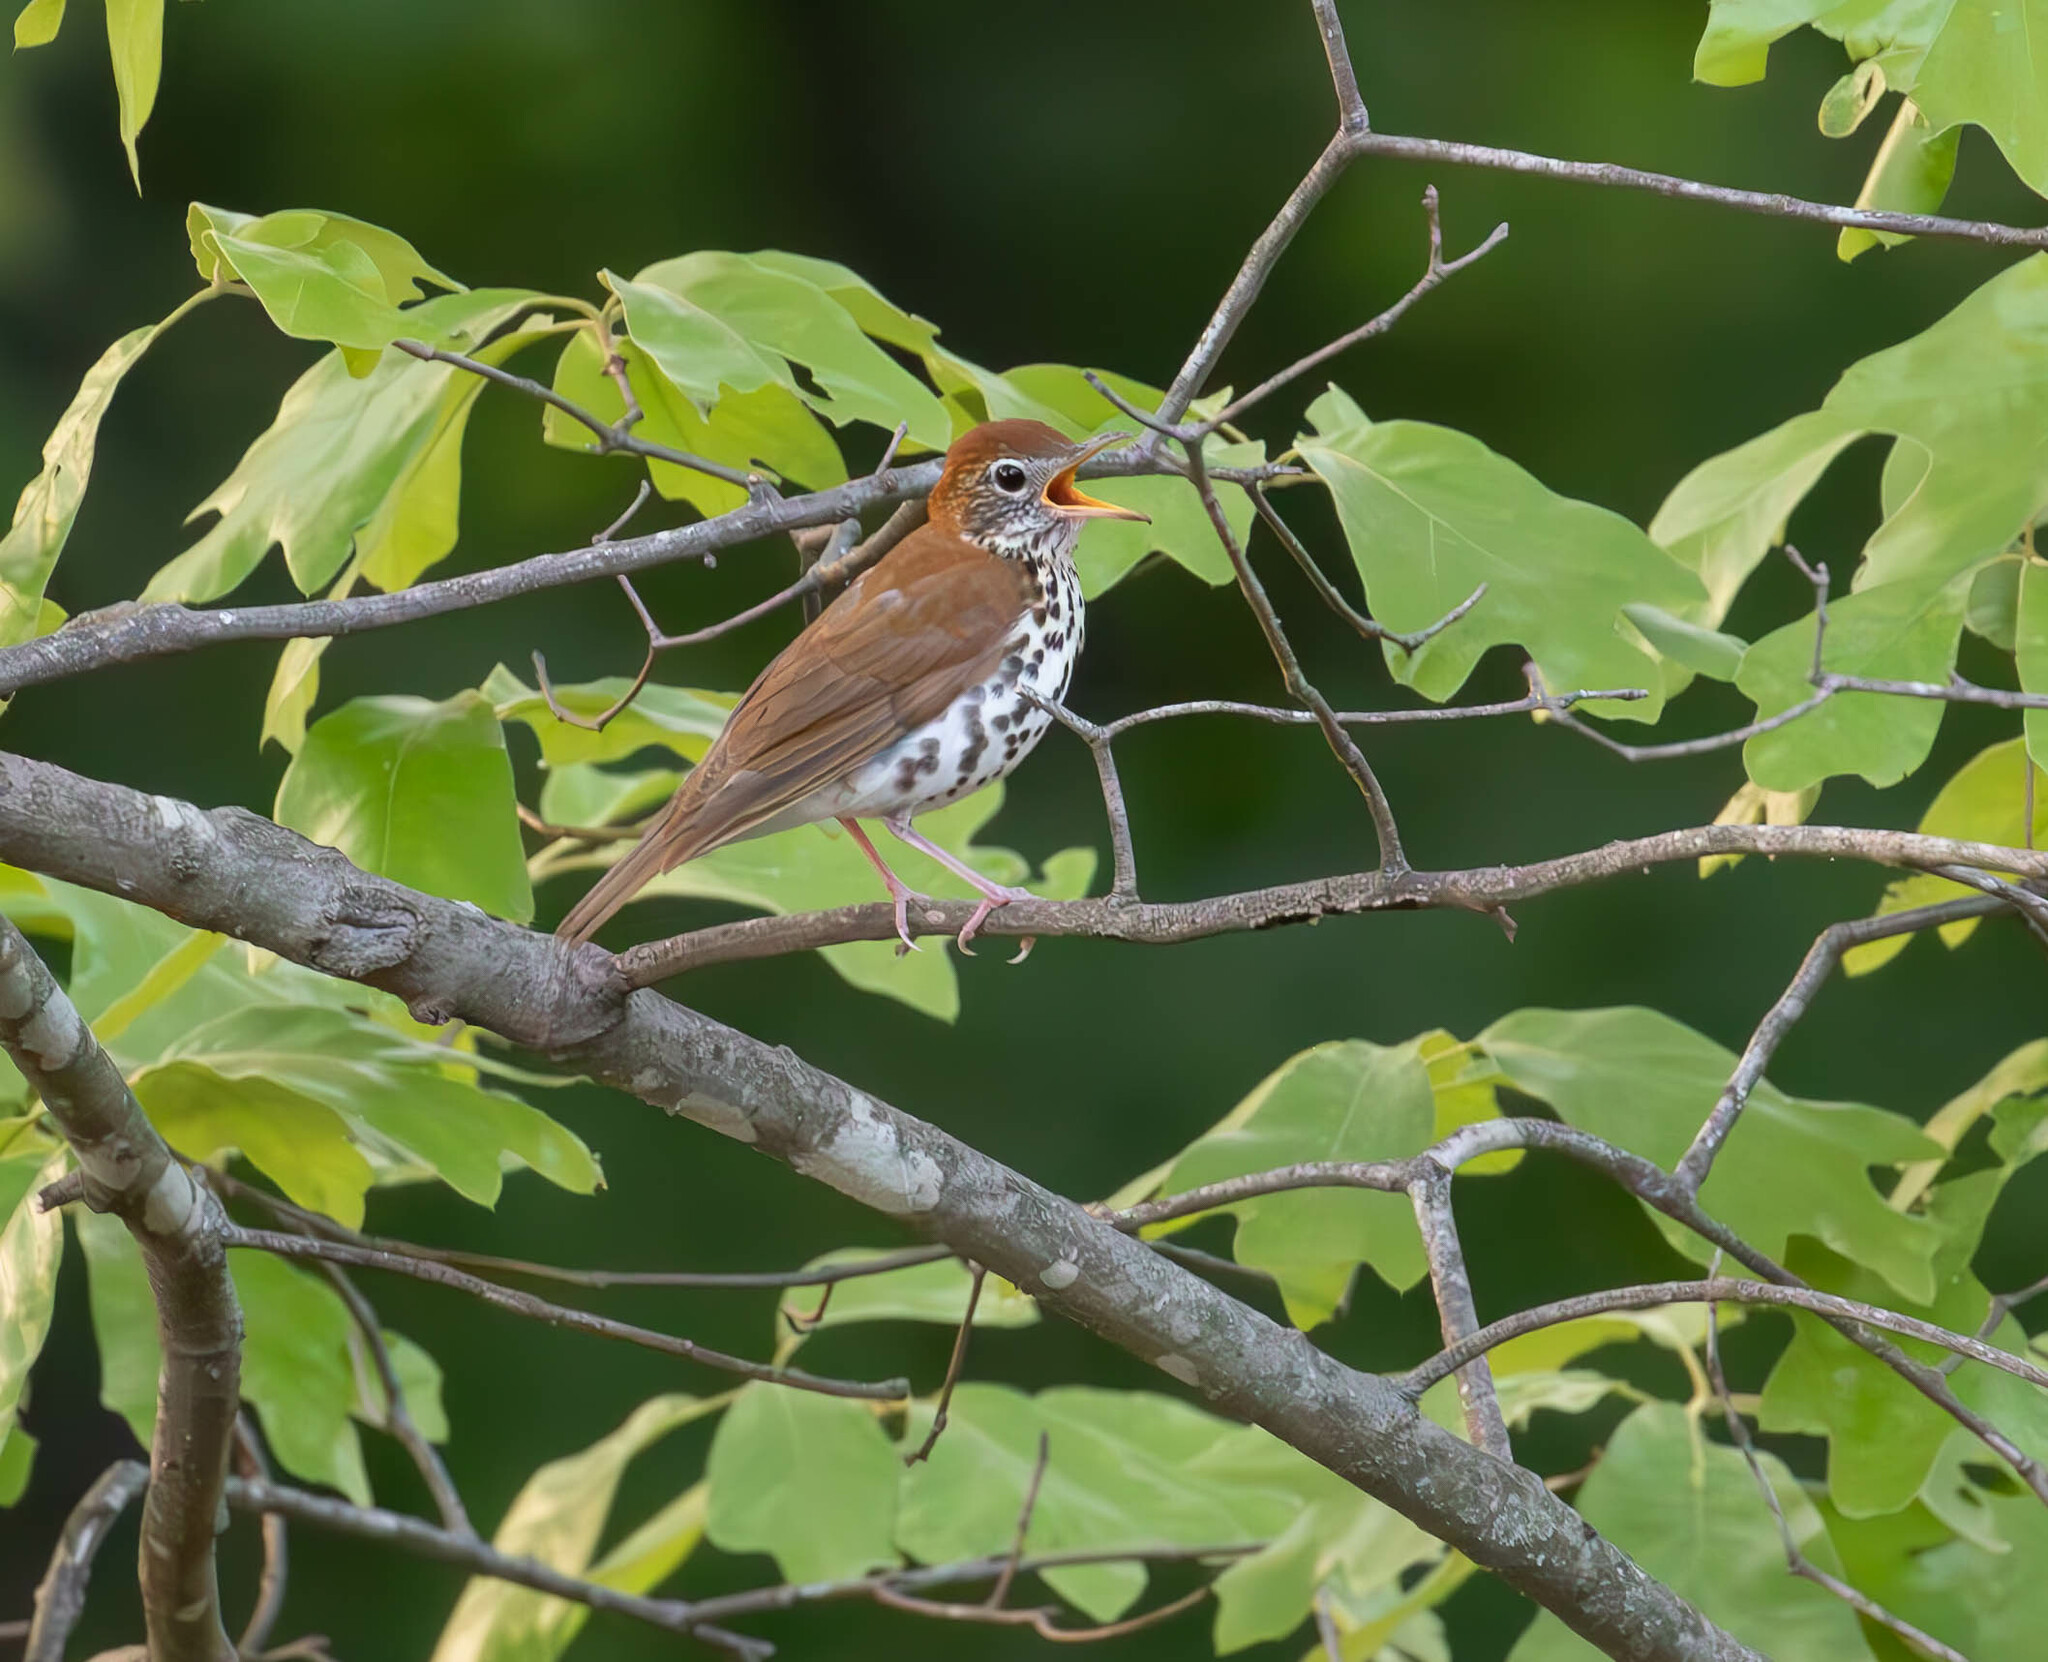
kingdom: Animalia
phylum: Chordata
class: Aves
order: Passeriformes
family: Turdidae
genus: Hylocichla
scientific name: Hylocichla mustelina
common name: Wood thrush
